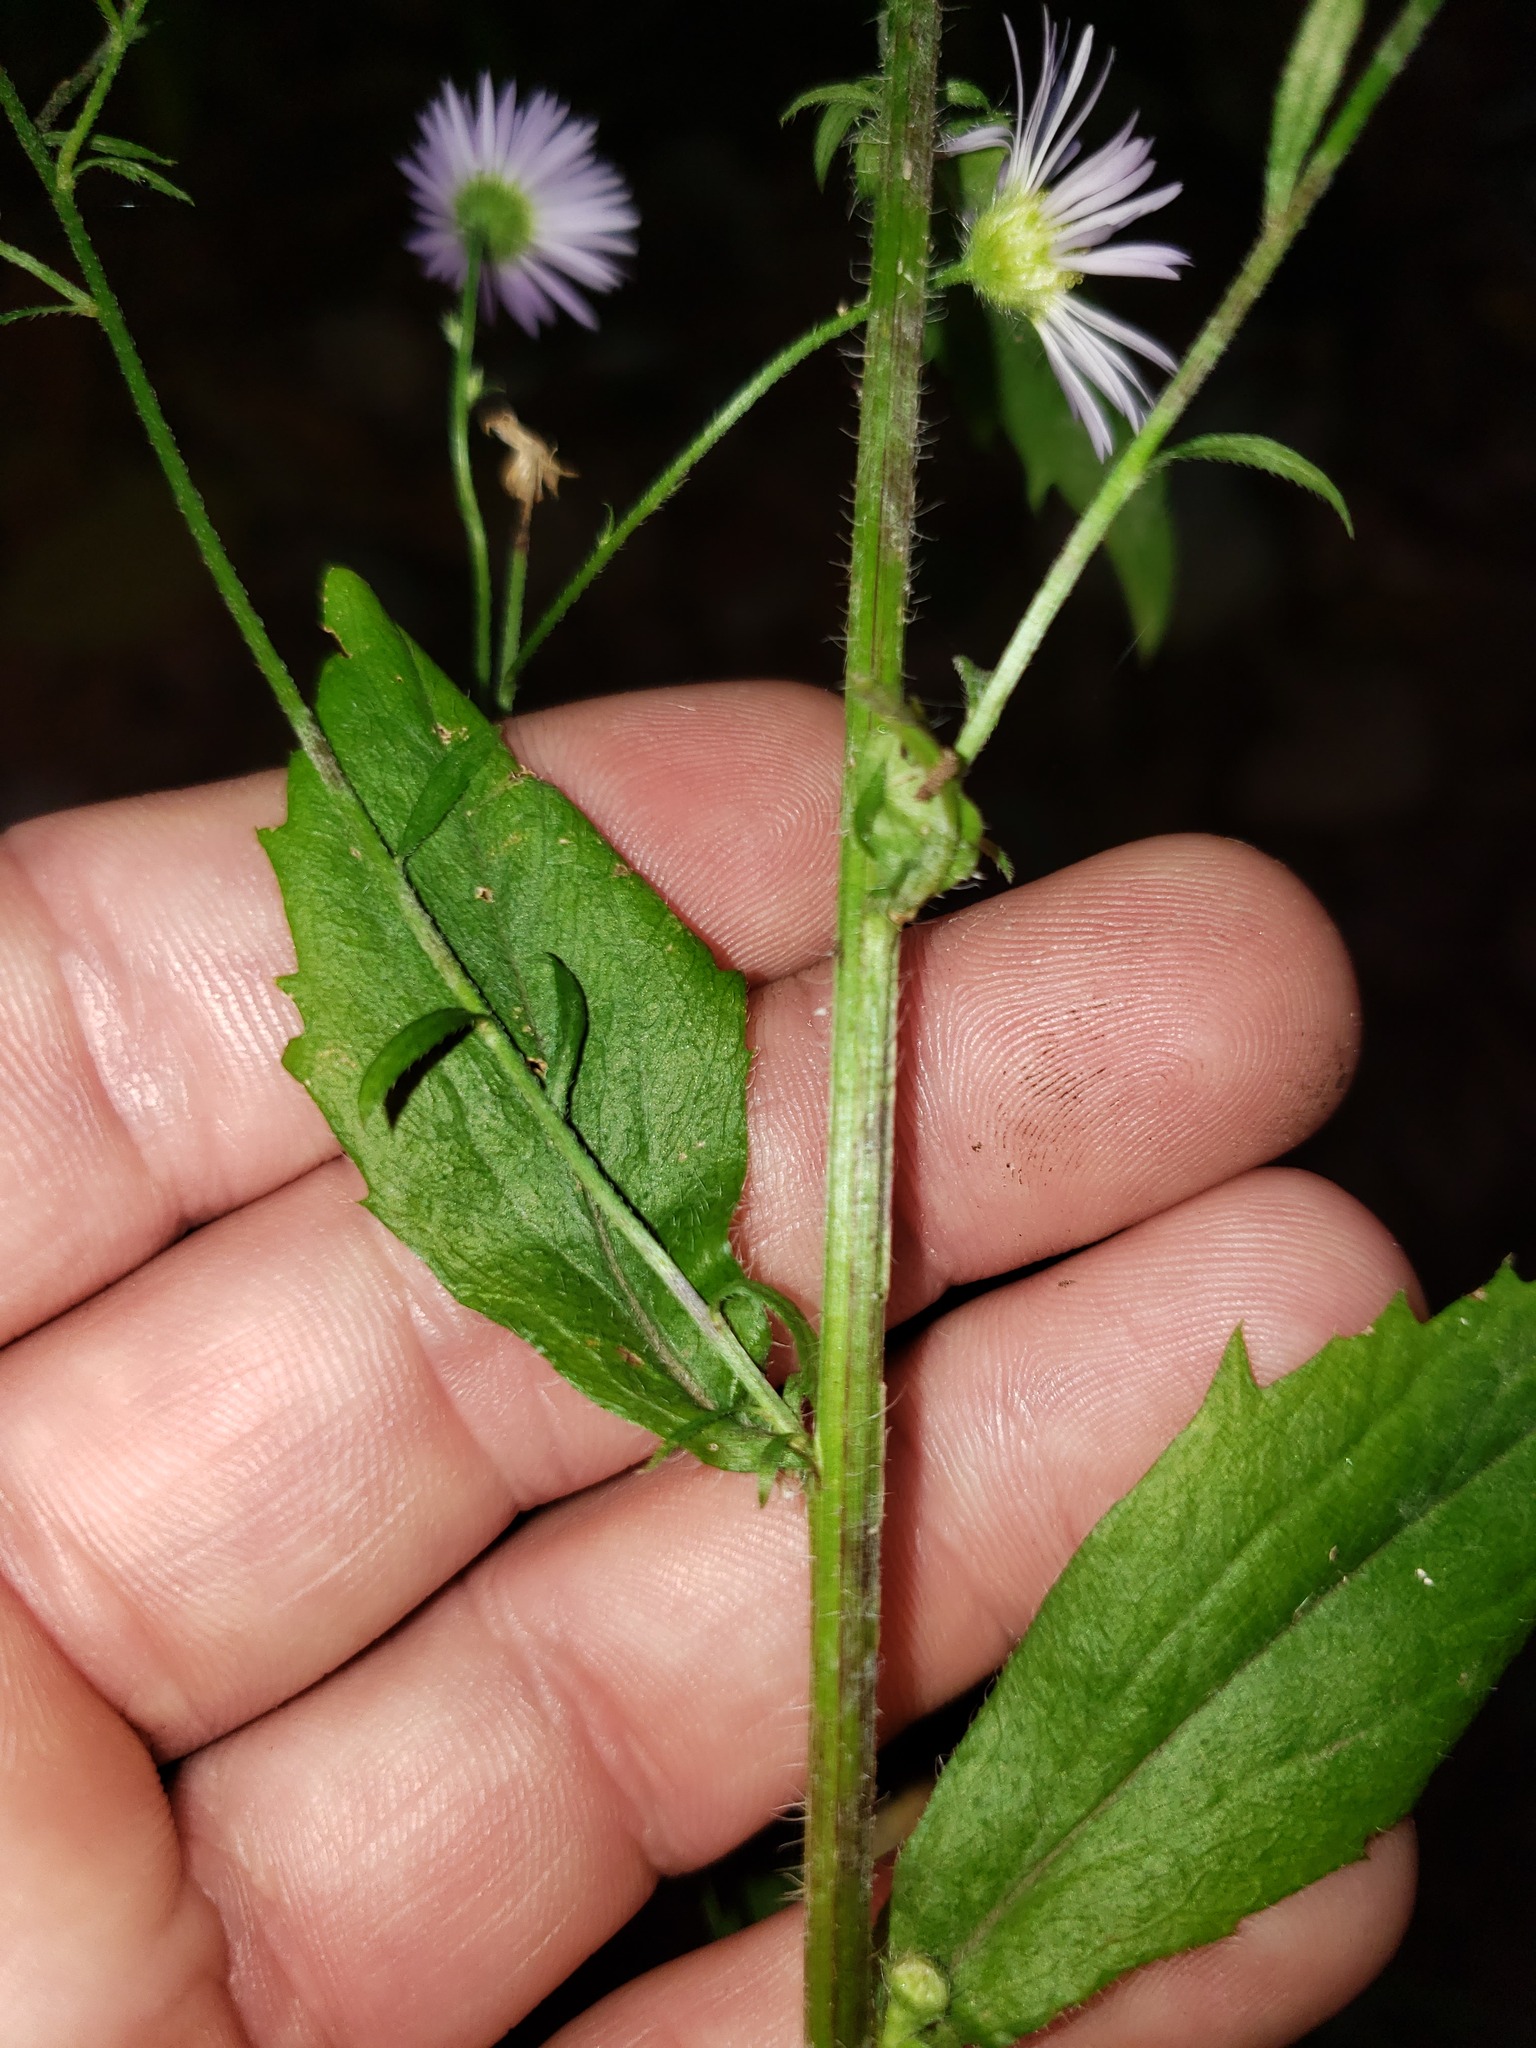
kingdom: Plantae
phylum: Tracheophyta
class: Magnoliopsida
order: Asterales
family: Asteraceae
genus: Erigeron
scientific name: Erigeron annuus
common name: Tall fleabane
